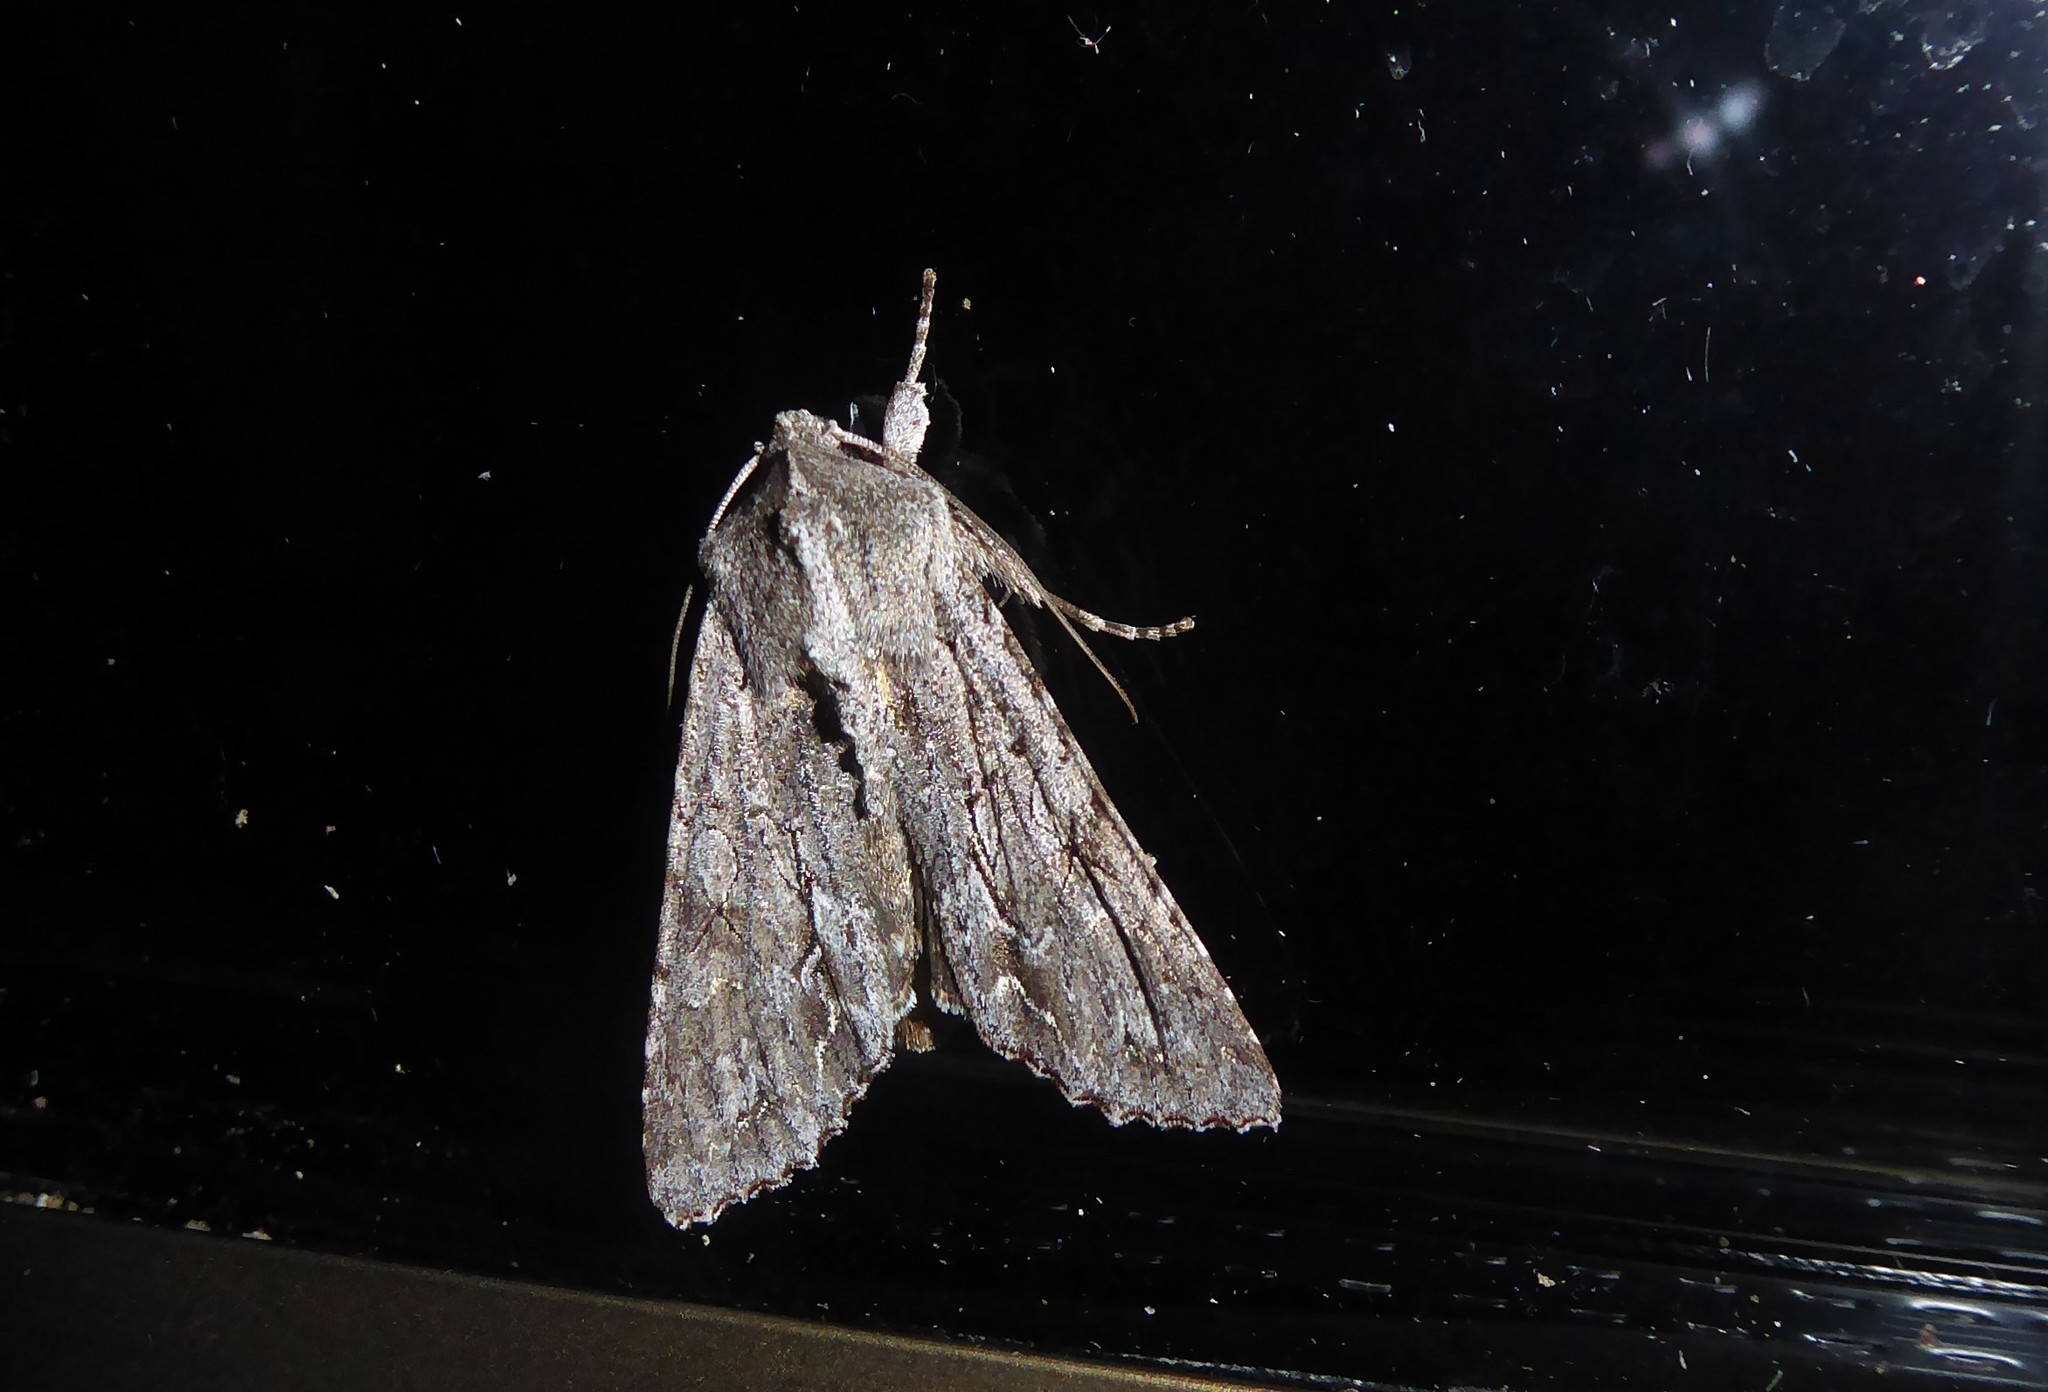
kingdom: Animalia
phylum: Arthropoda
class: Insecta
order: Lepidoptera
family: Noctuidae
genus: Ichneutica
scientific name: Ichneutica
